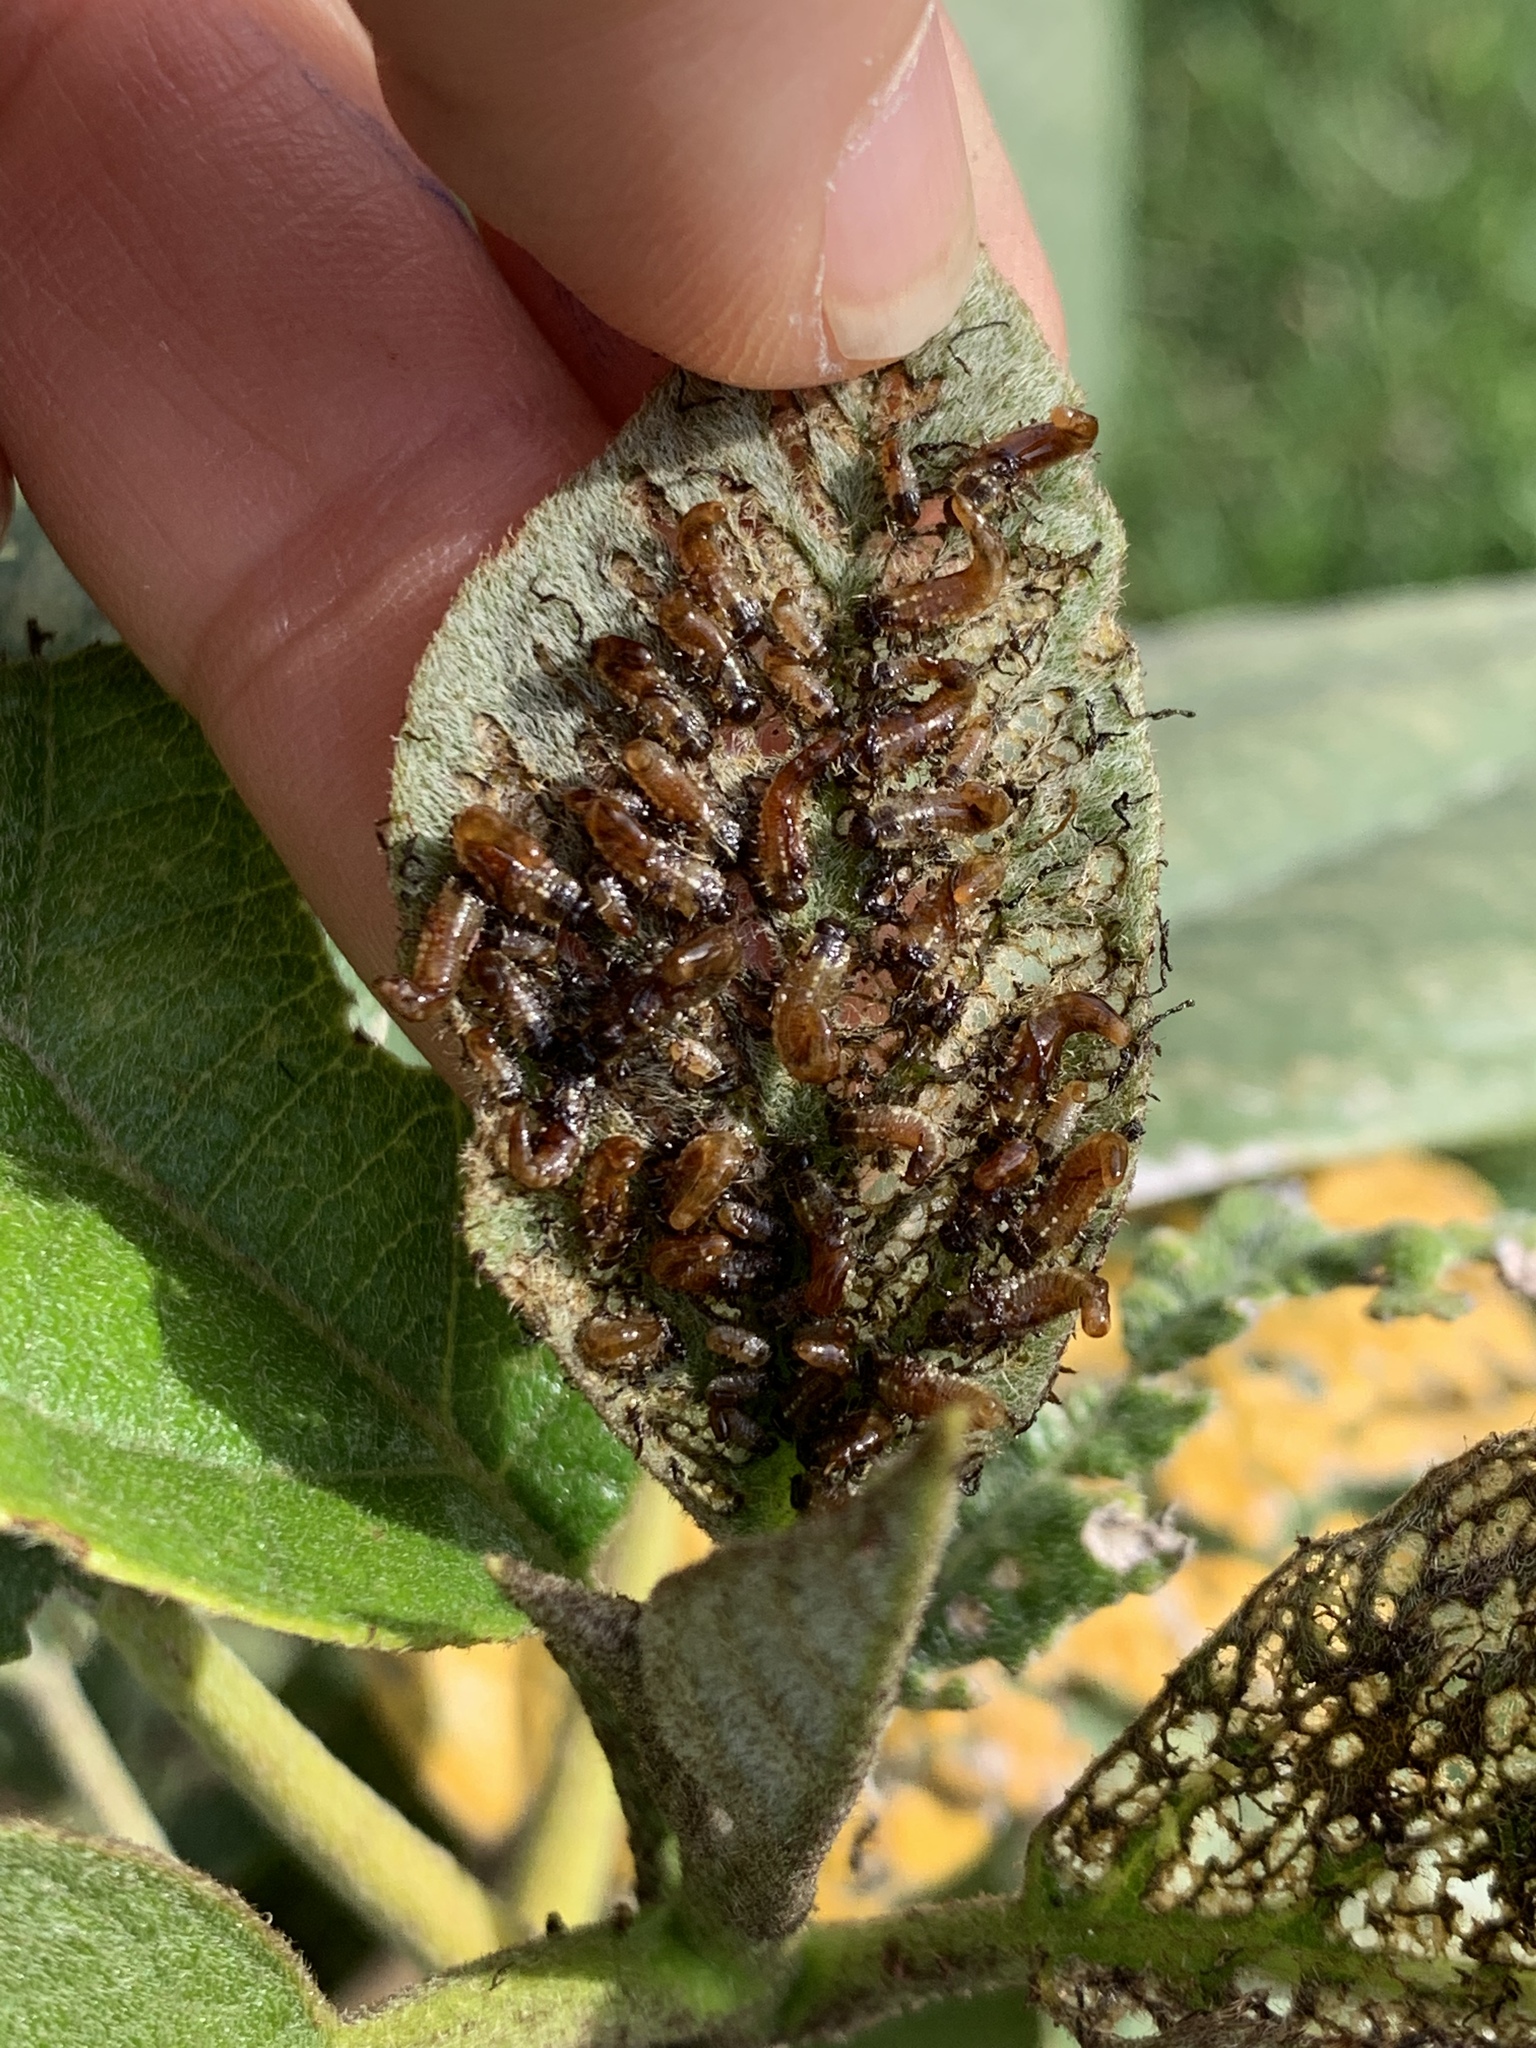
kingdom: Animalia
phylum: Arthropoda
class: Insecta
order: Coleoptera
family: Chrysomelidae
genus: Eurypepla
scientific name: Eurypepla calochroma
